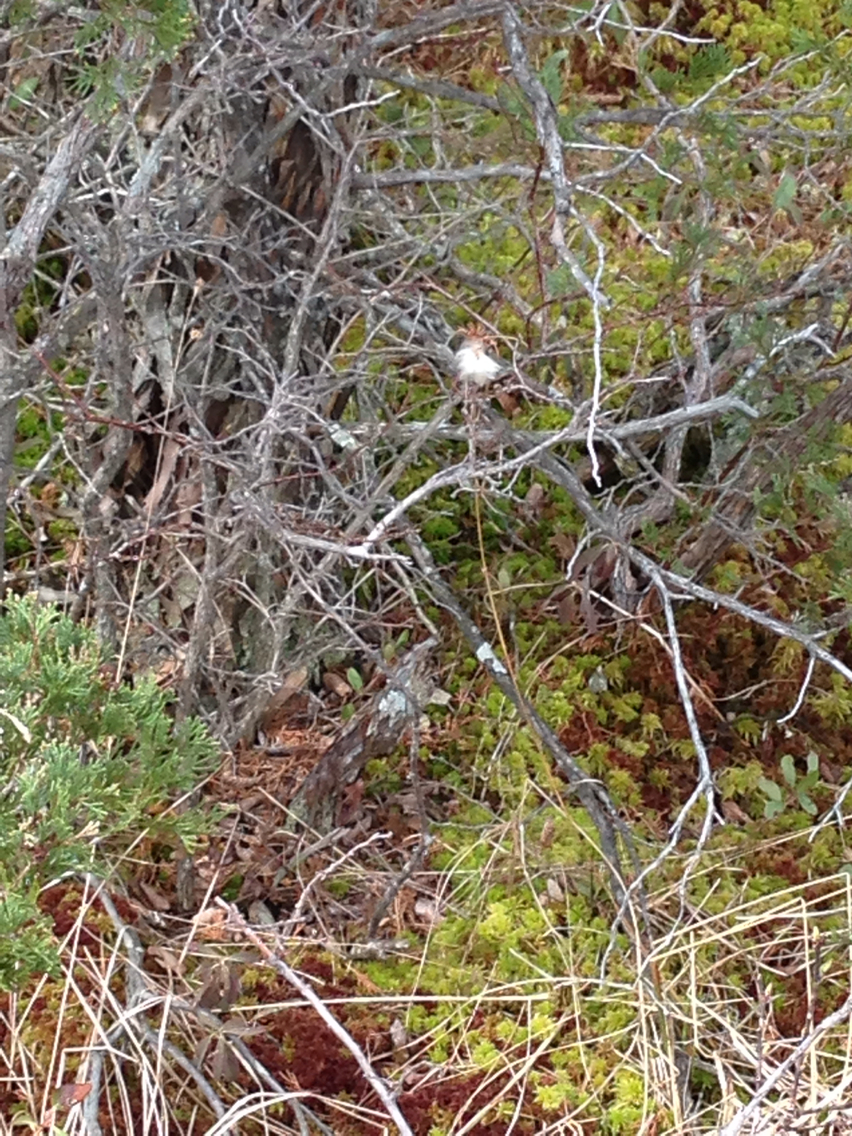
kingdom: Plantae
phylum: Tracheophyta
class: Liliopsida
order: Poales
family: Cyperaceae
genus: Eriophorum
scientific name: Eriophorum
